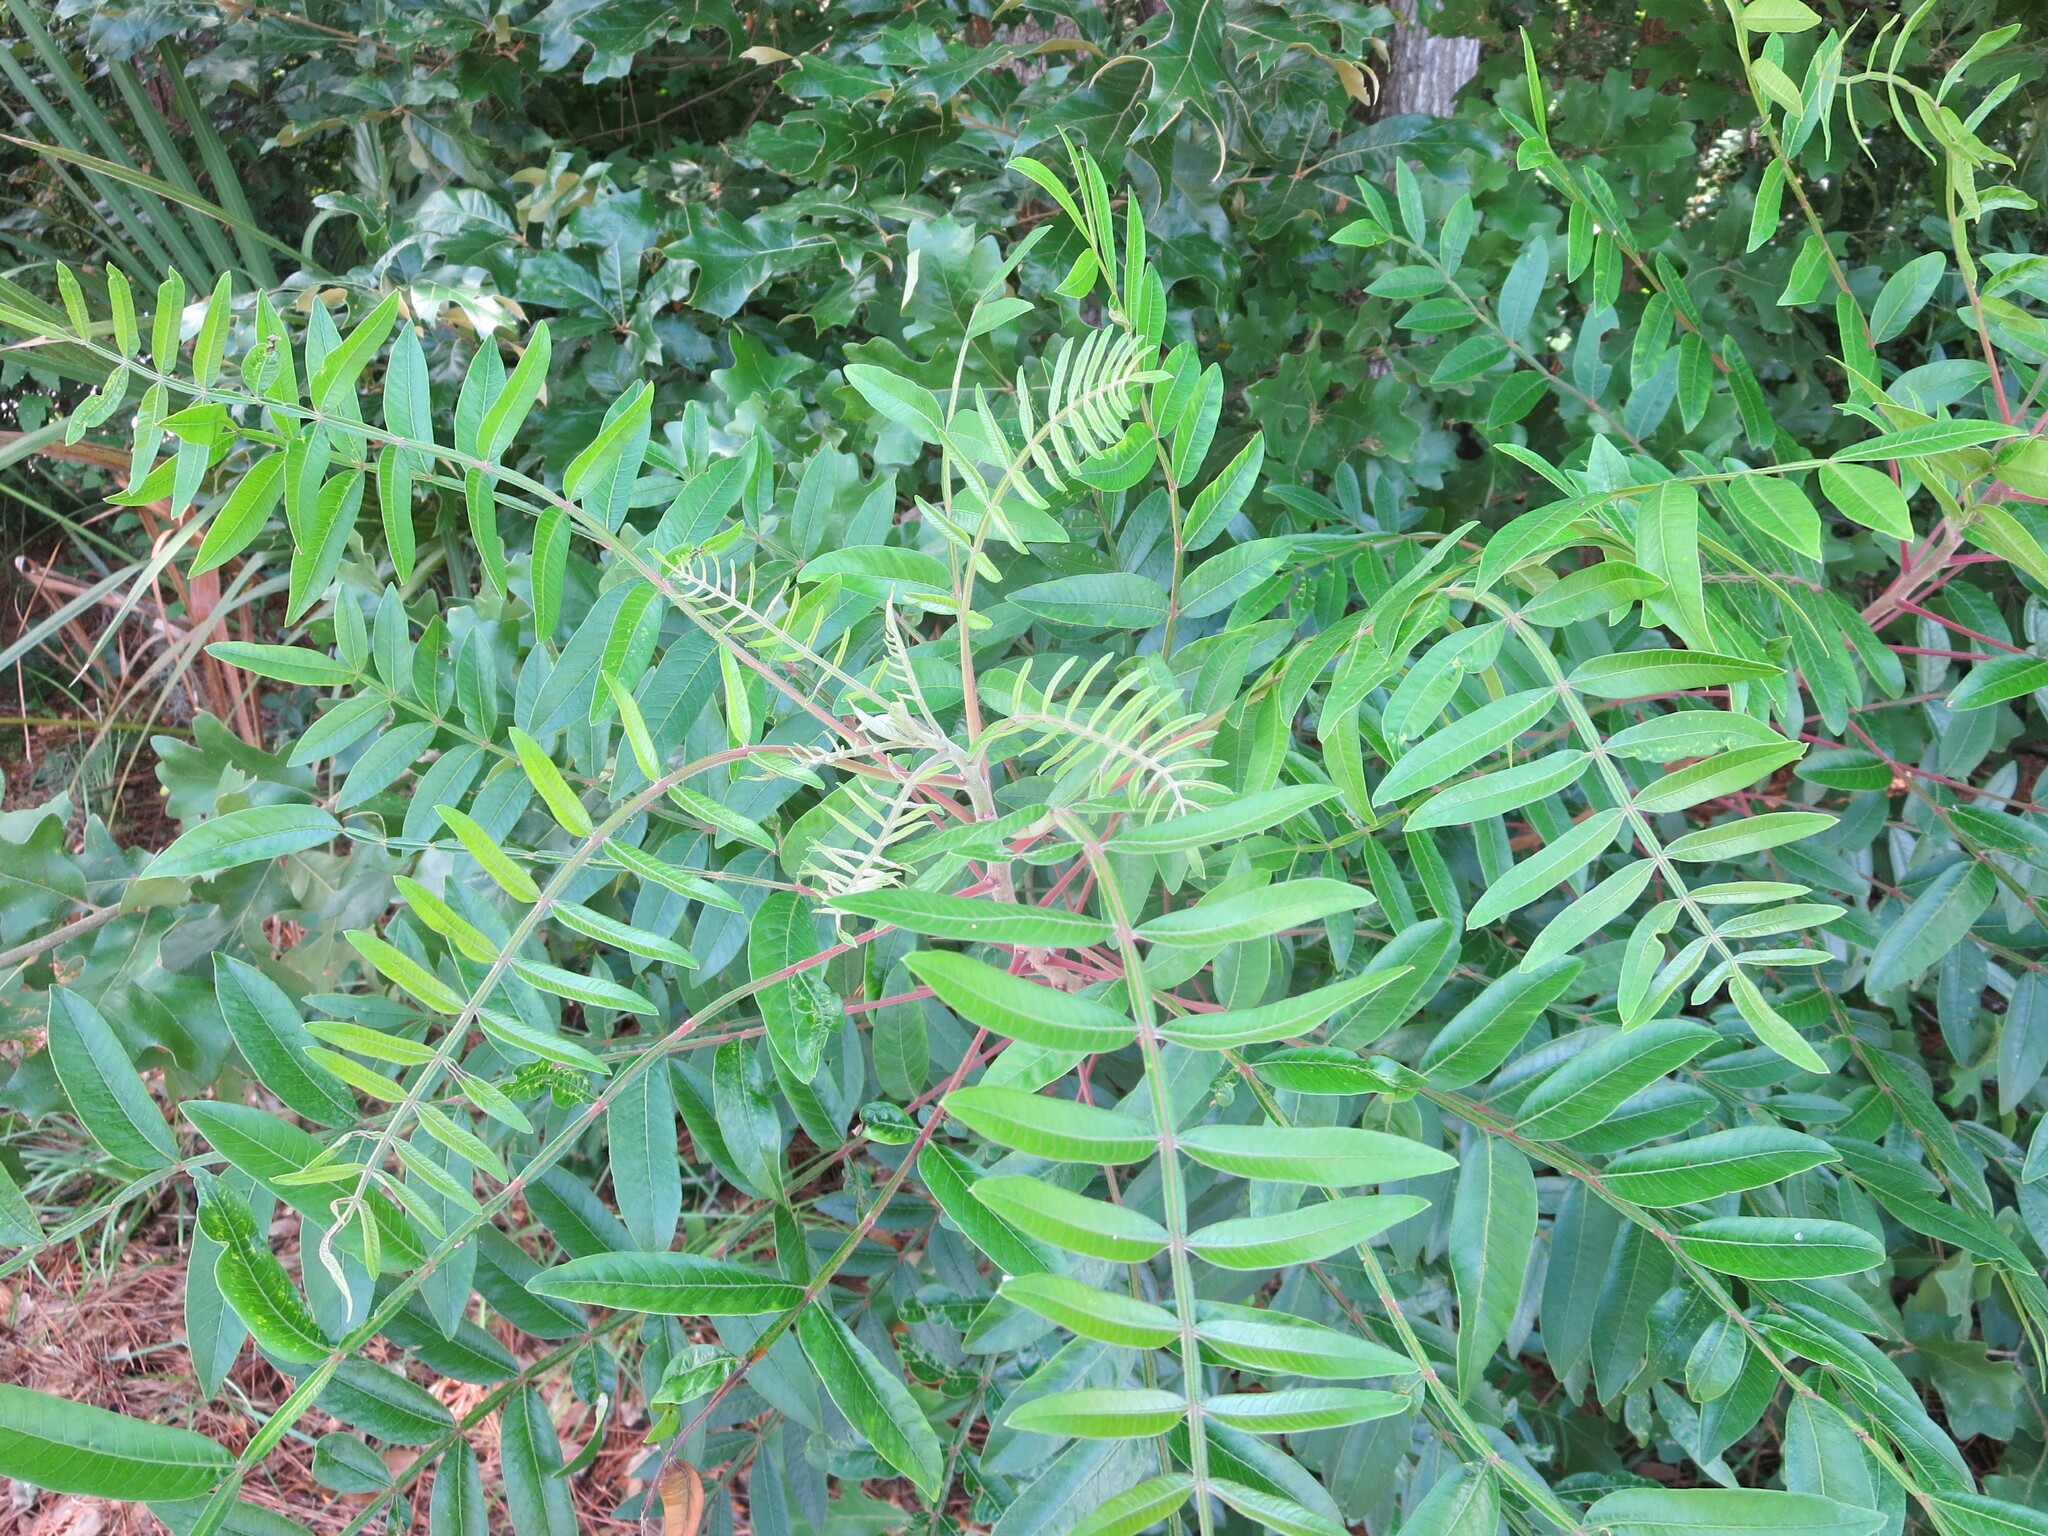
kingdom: Plantae
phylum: Tracheophyta
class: Magnoliopsida
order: Sapindales
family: Anacardiaceae
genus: Rhus
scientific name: Rhus copallina
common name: Shining sumac
